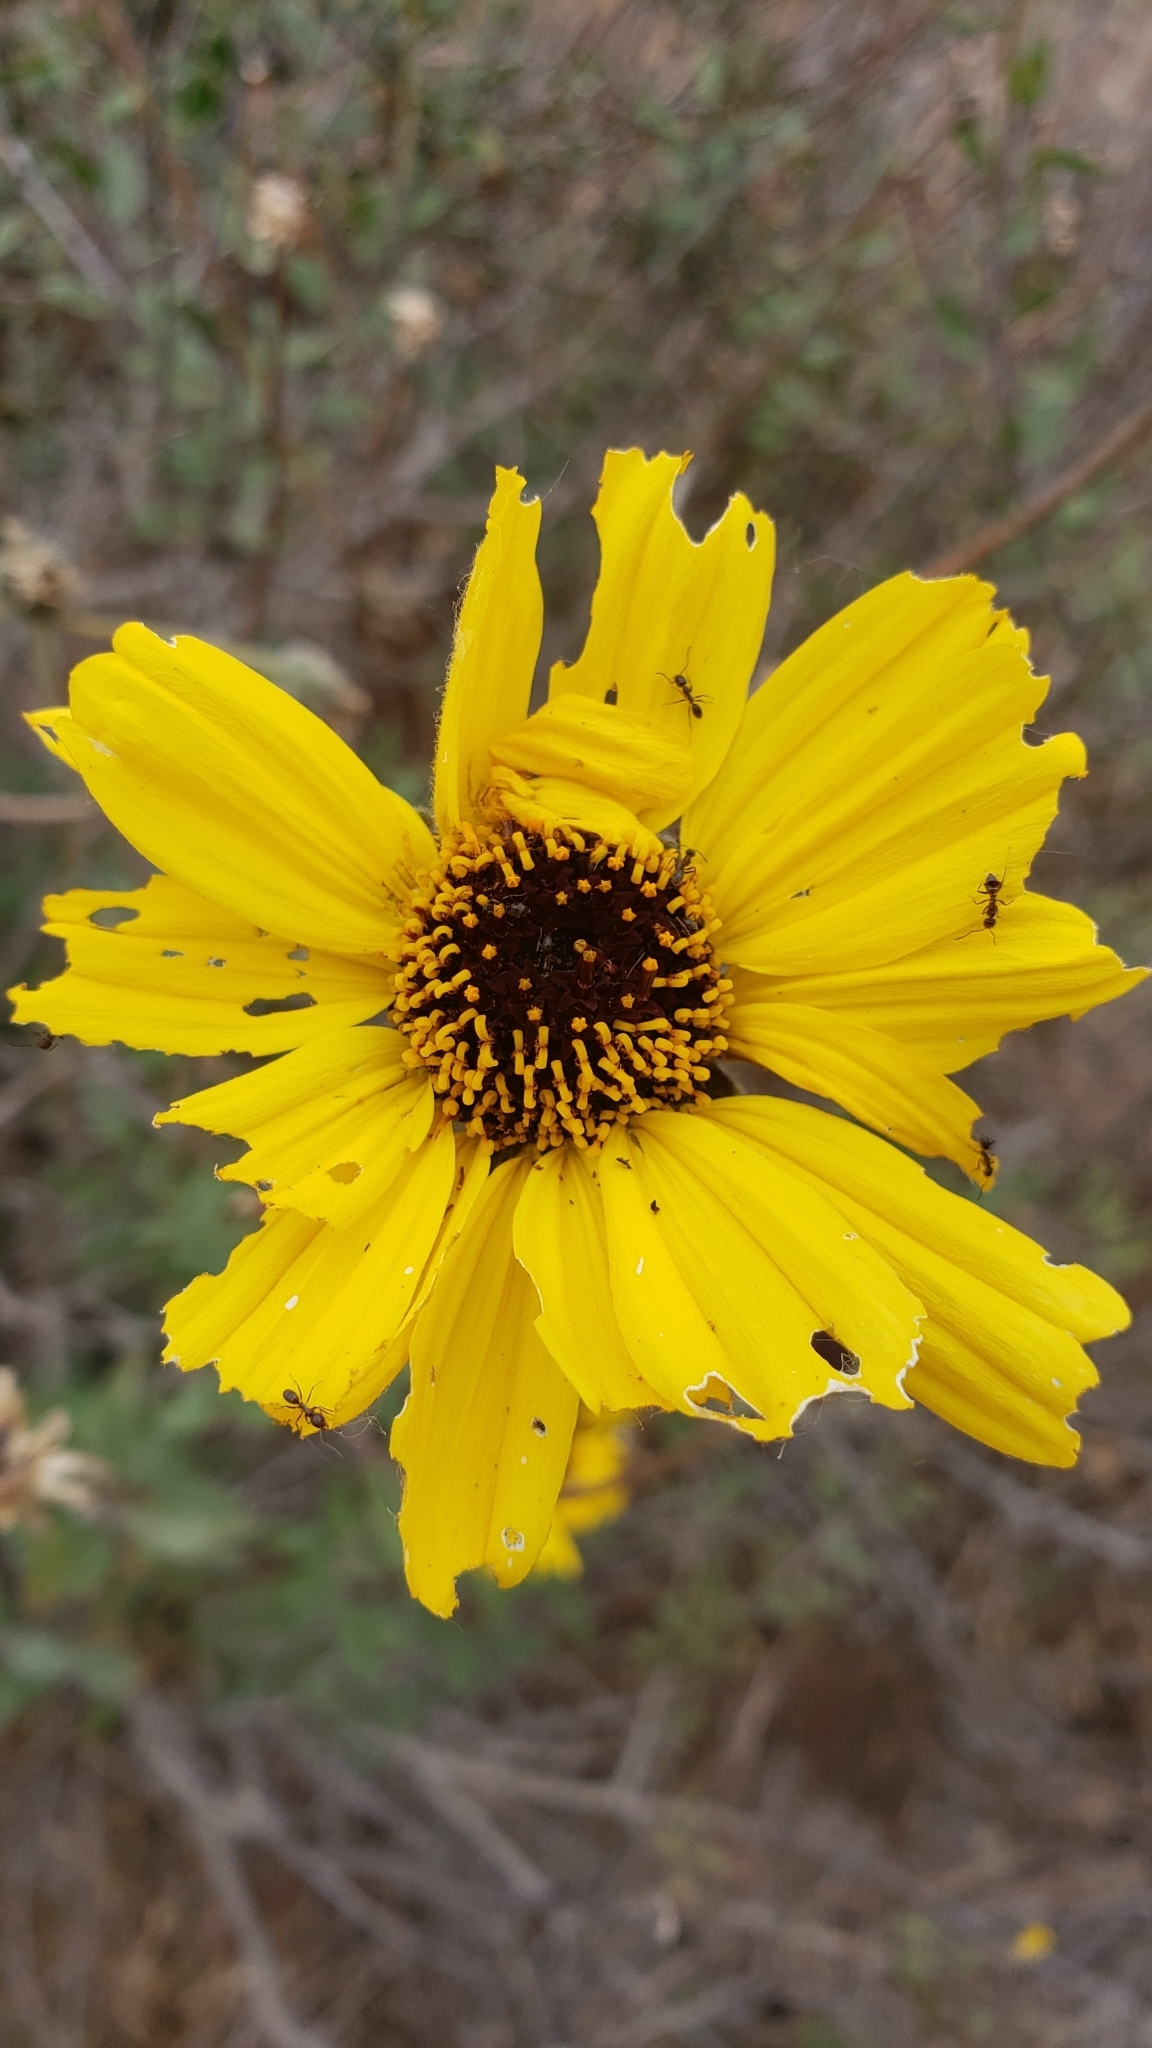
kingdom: Plantae
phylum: Tracheophyta
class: Magnoliopsida
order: Asterales
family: Asteraceae
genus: Encelia
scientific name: Encelia californica
